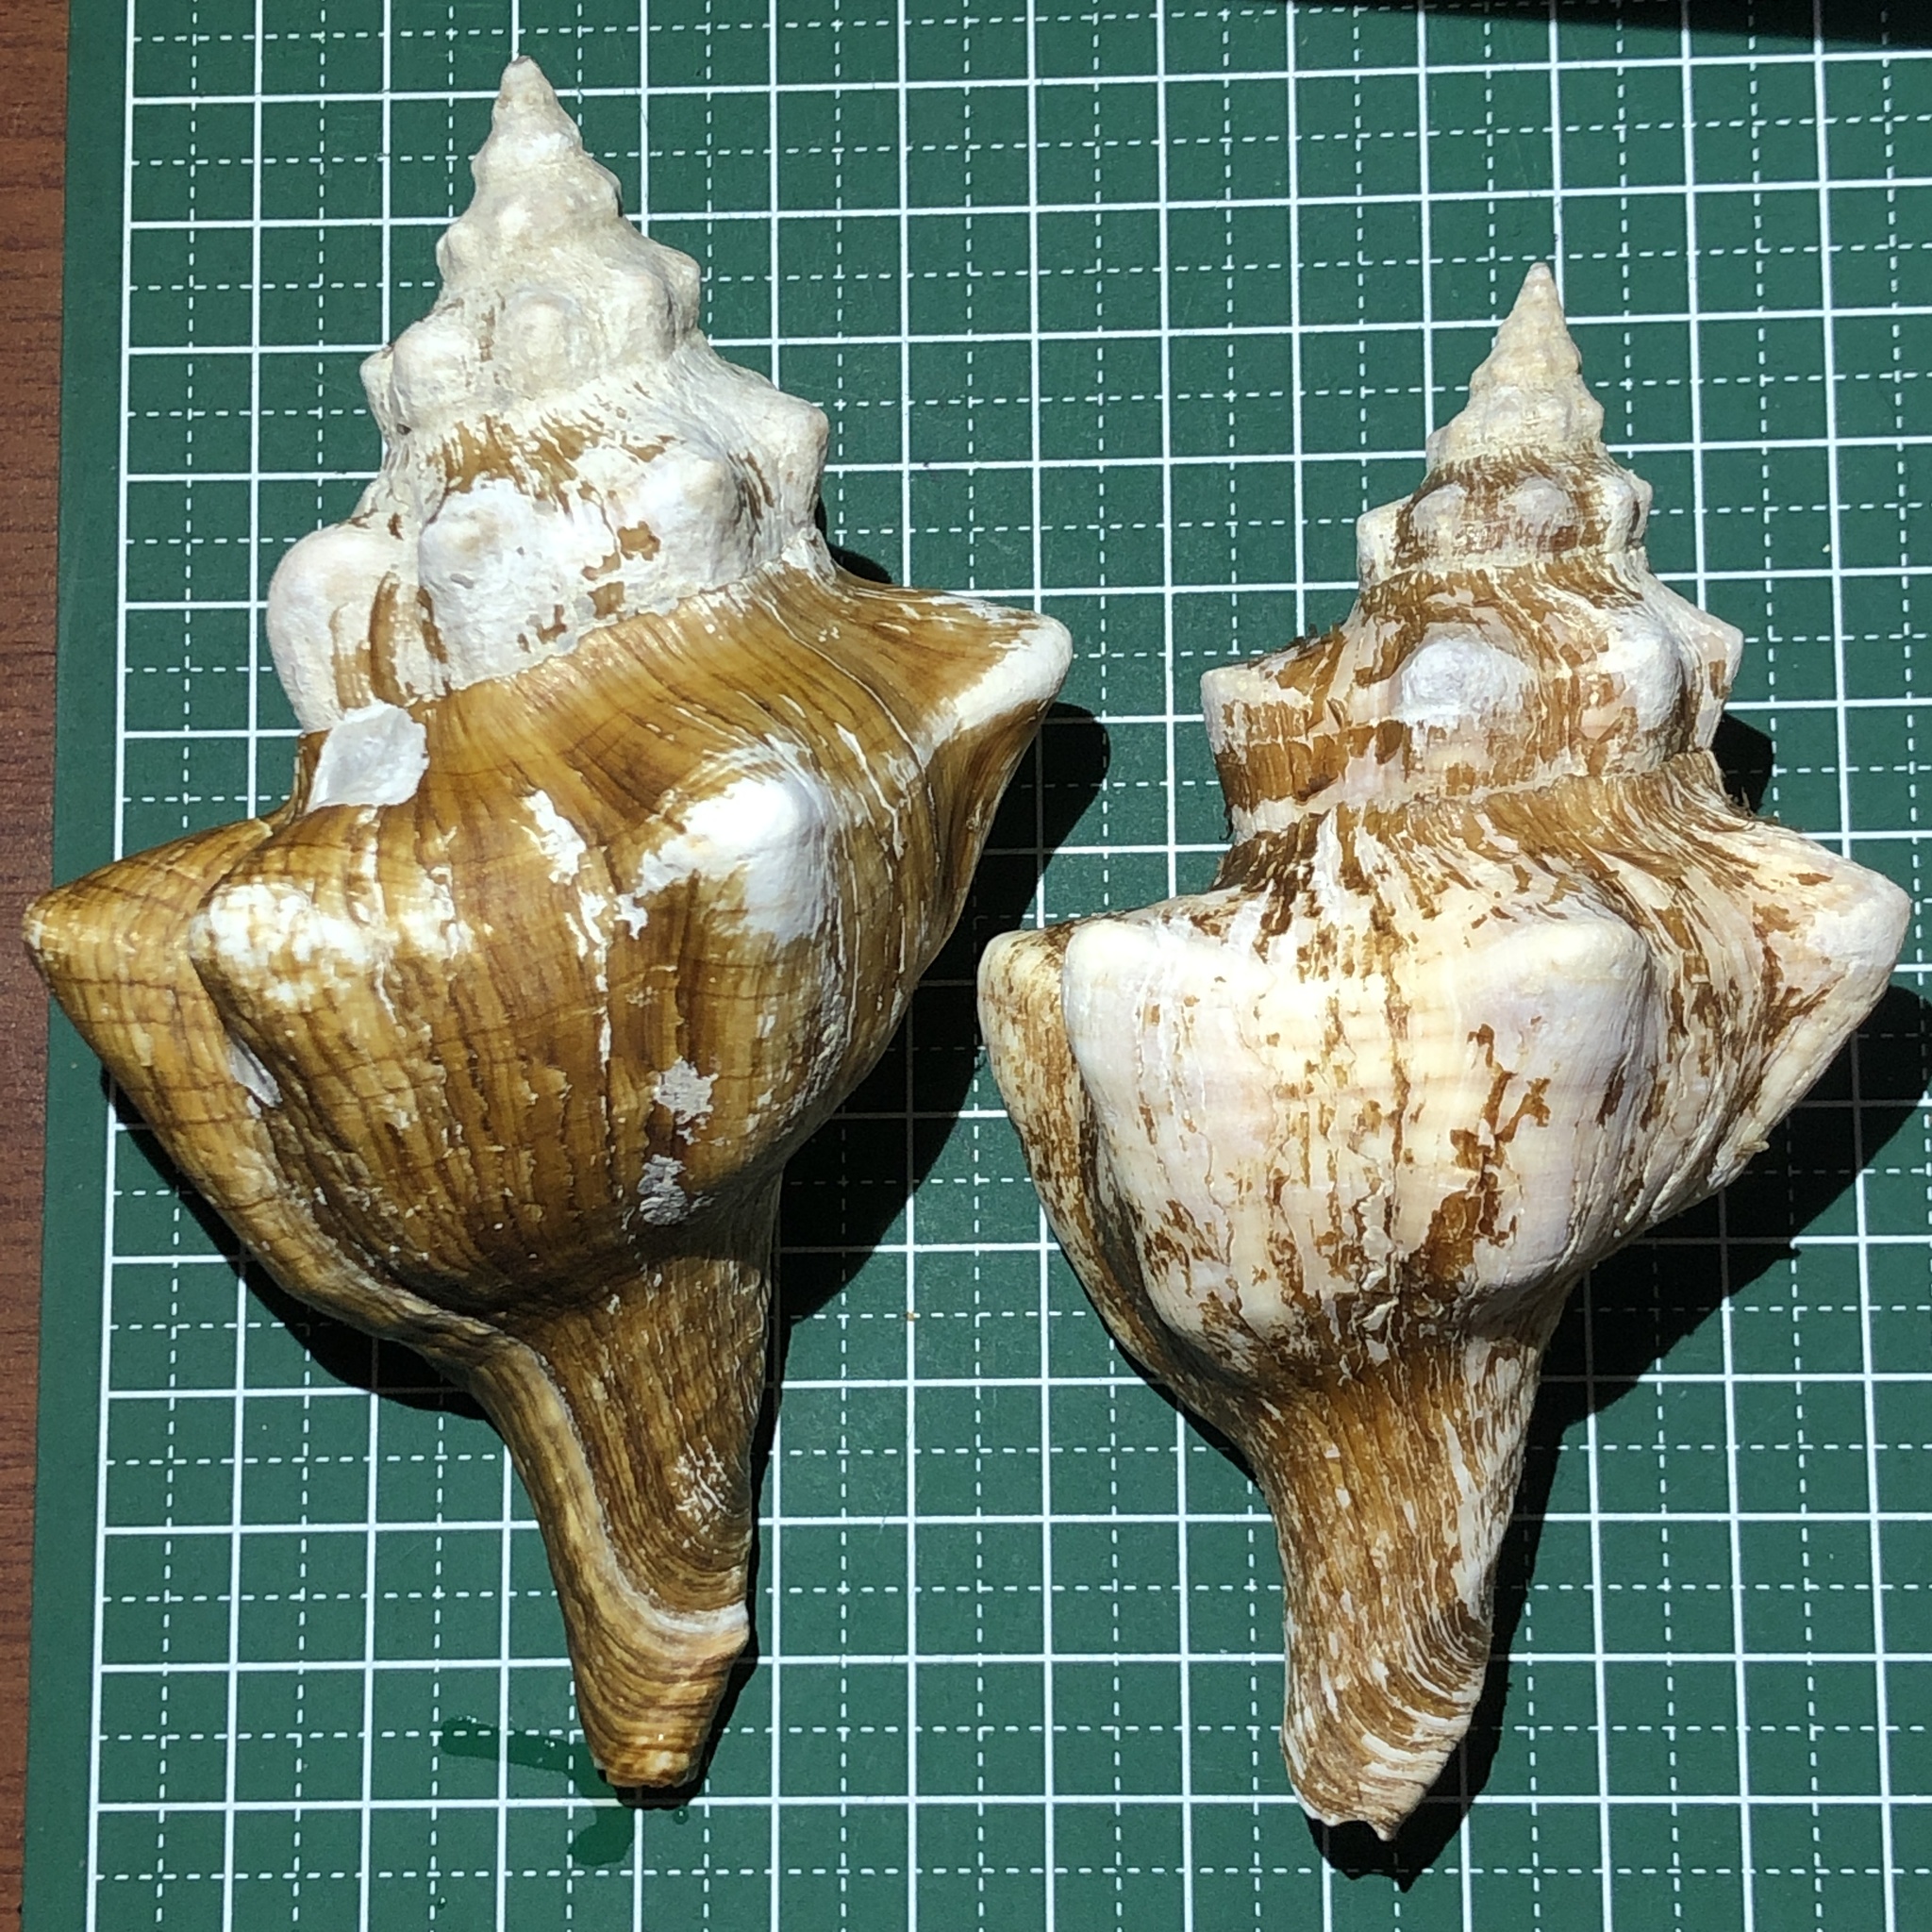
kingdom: Animalia
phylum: Mollusca
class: Gastropoda
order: Neogastropoda
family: Fasciolariidae
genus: Pleuroploca
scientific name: Pleuroploca trapezium
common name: Trapeze horseconch
